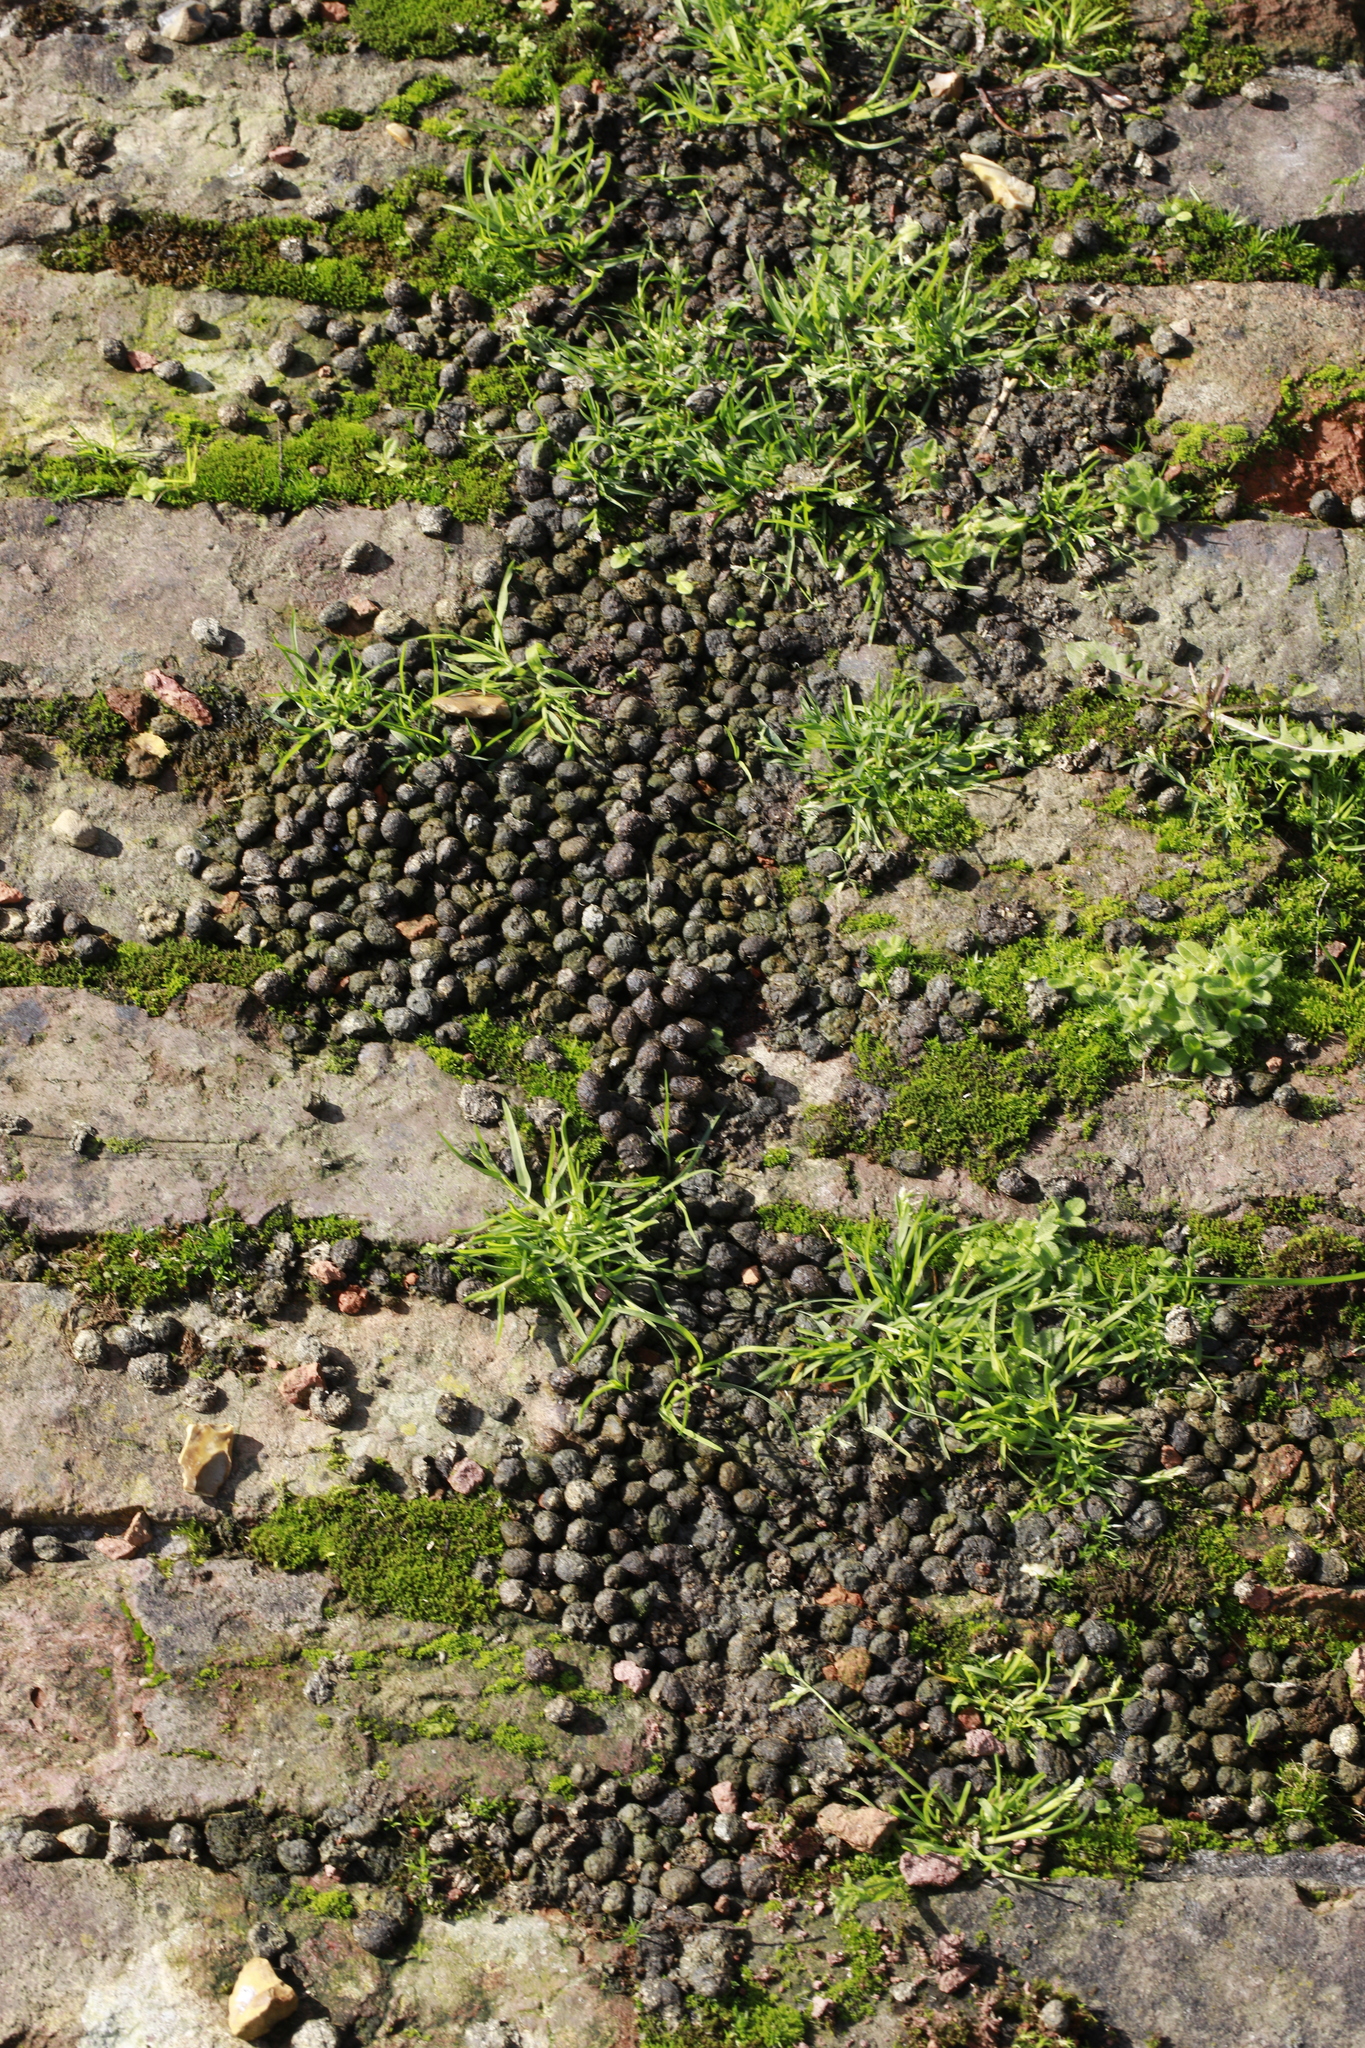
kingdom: Animalia
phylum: Chordata
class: Mammalia
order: Lagomorpha
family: Leporidae
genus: Oryctolagus
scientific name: Oryctolagus cuniculus
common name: European rabbit
